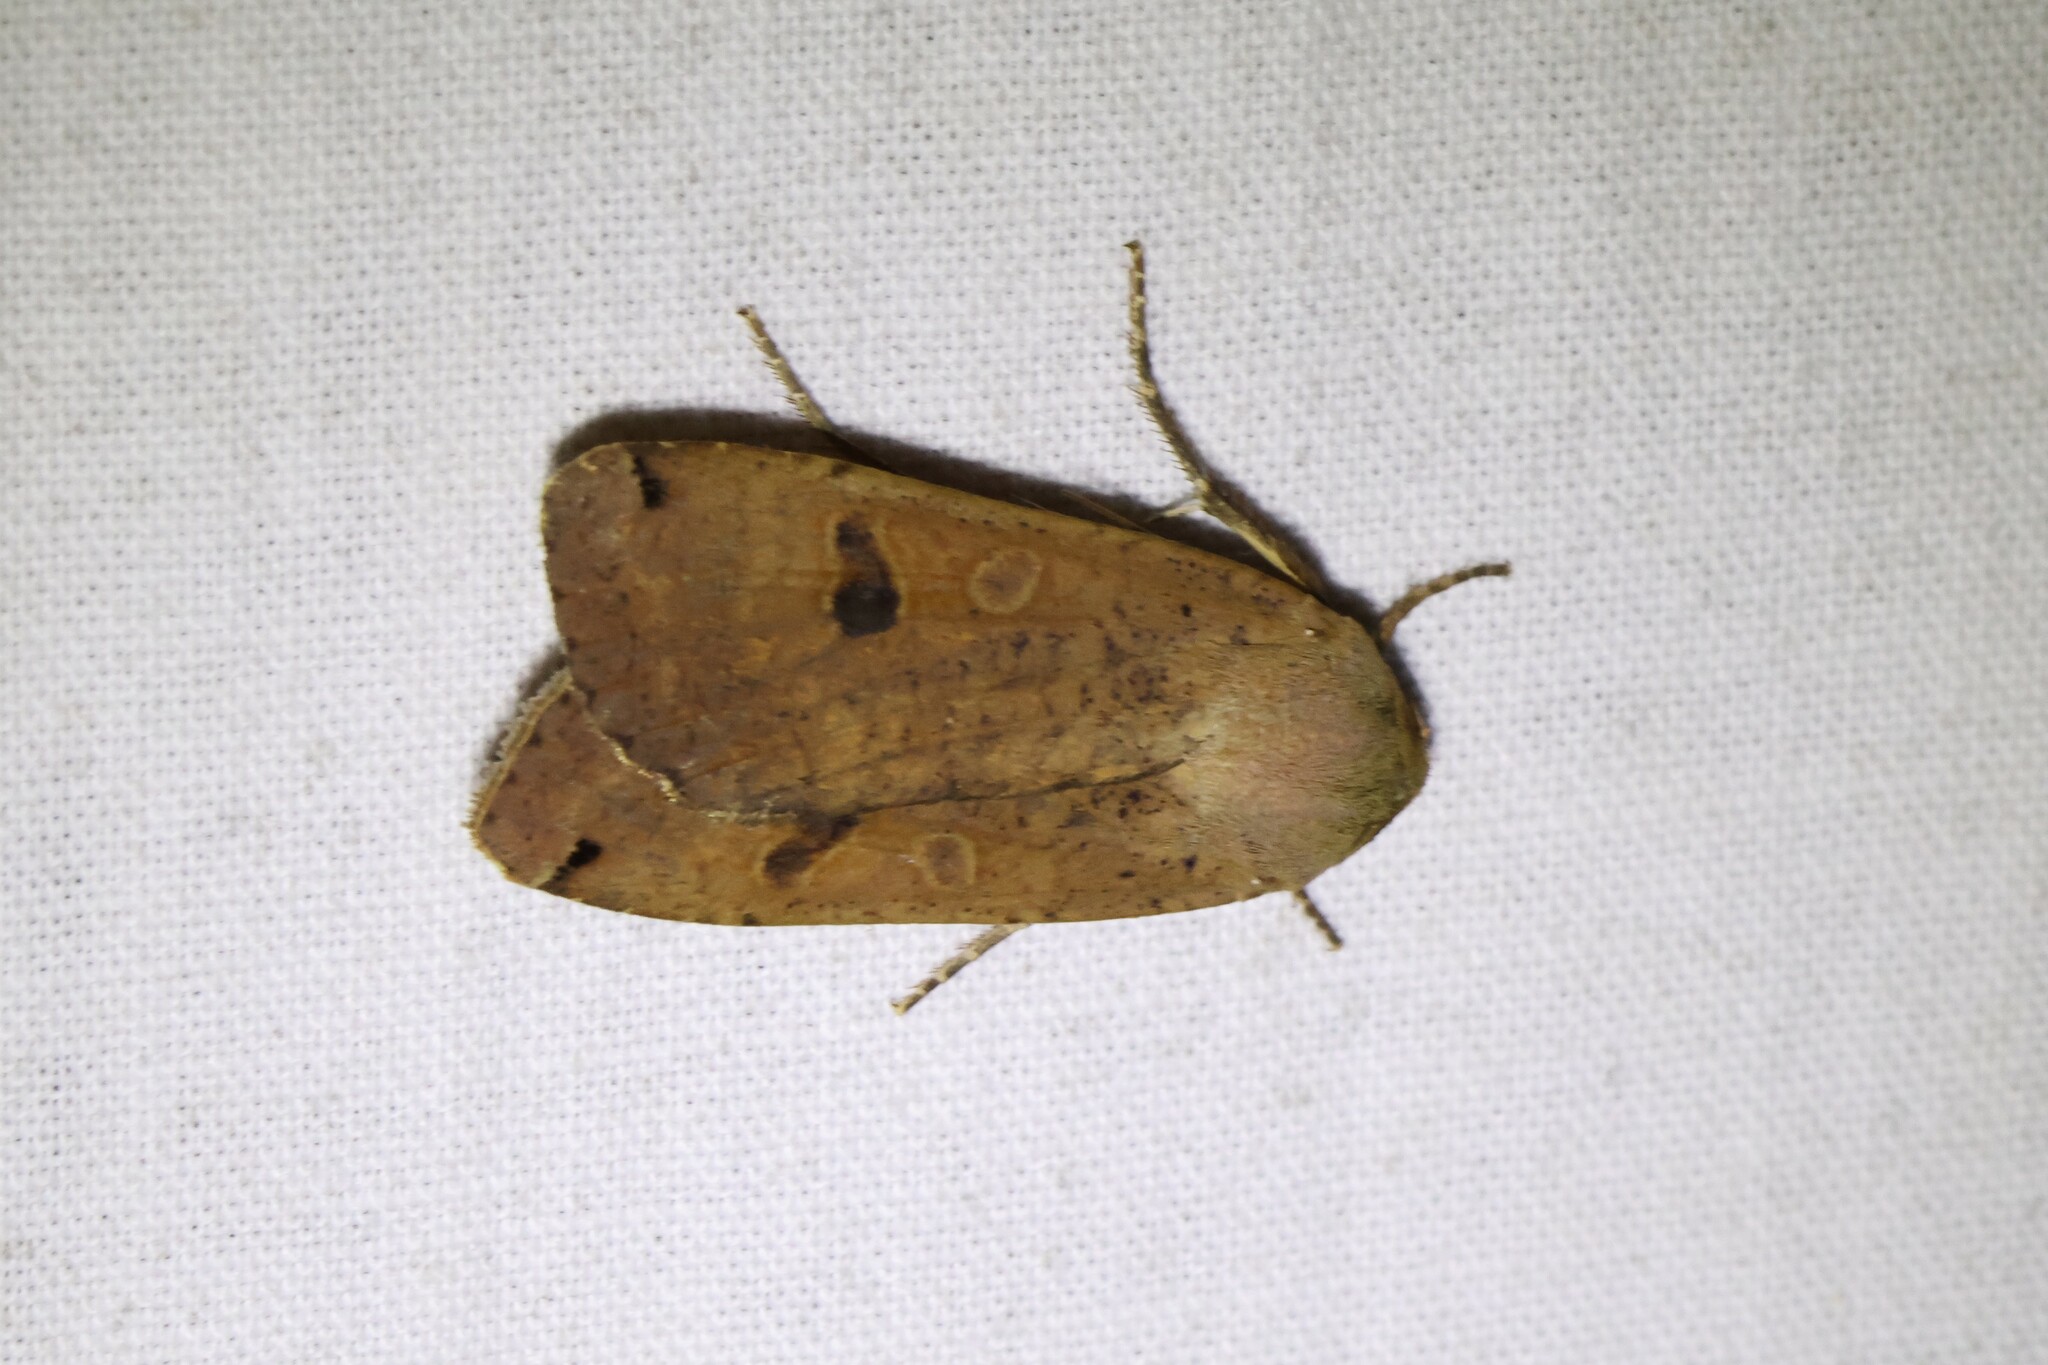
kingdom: Animalia
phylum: Arthropoda
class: Insecta
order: Lepidoptera
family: Noctuidae
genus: Noctua
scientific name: Noctua pronuba
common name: Large yellow underwing
